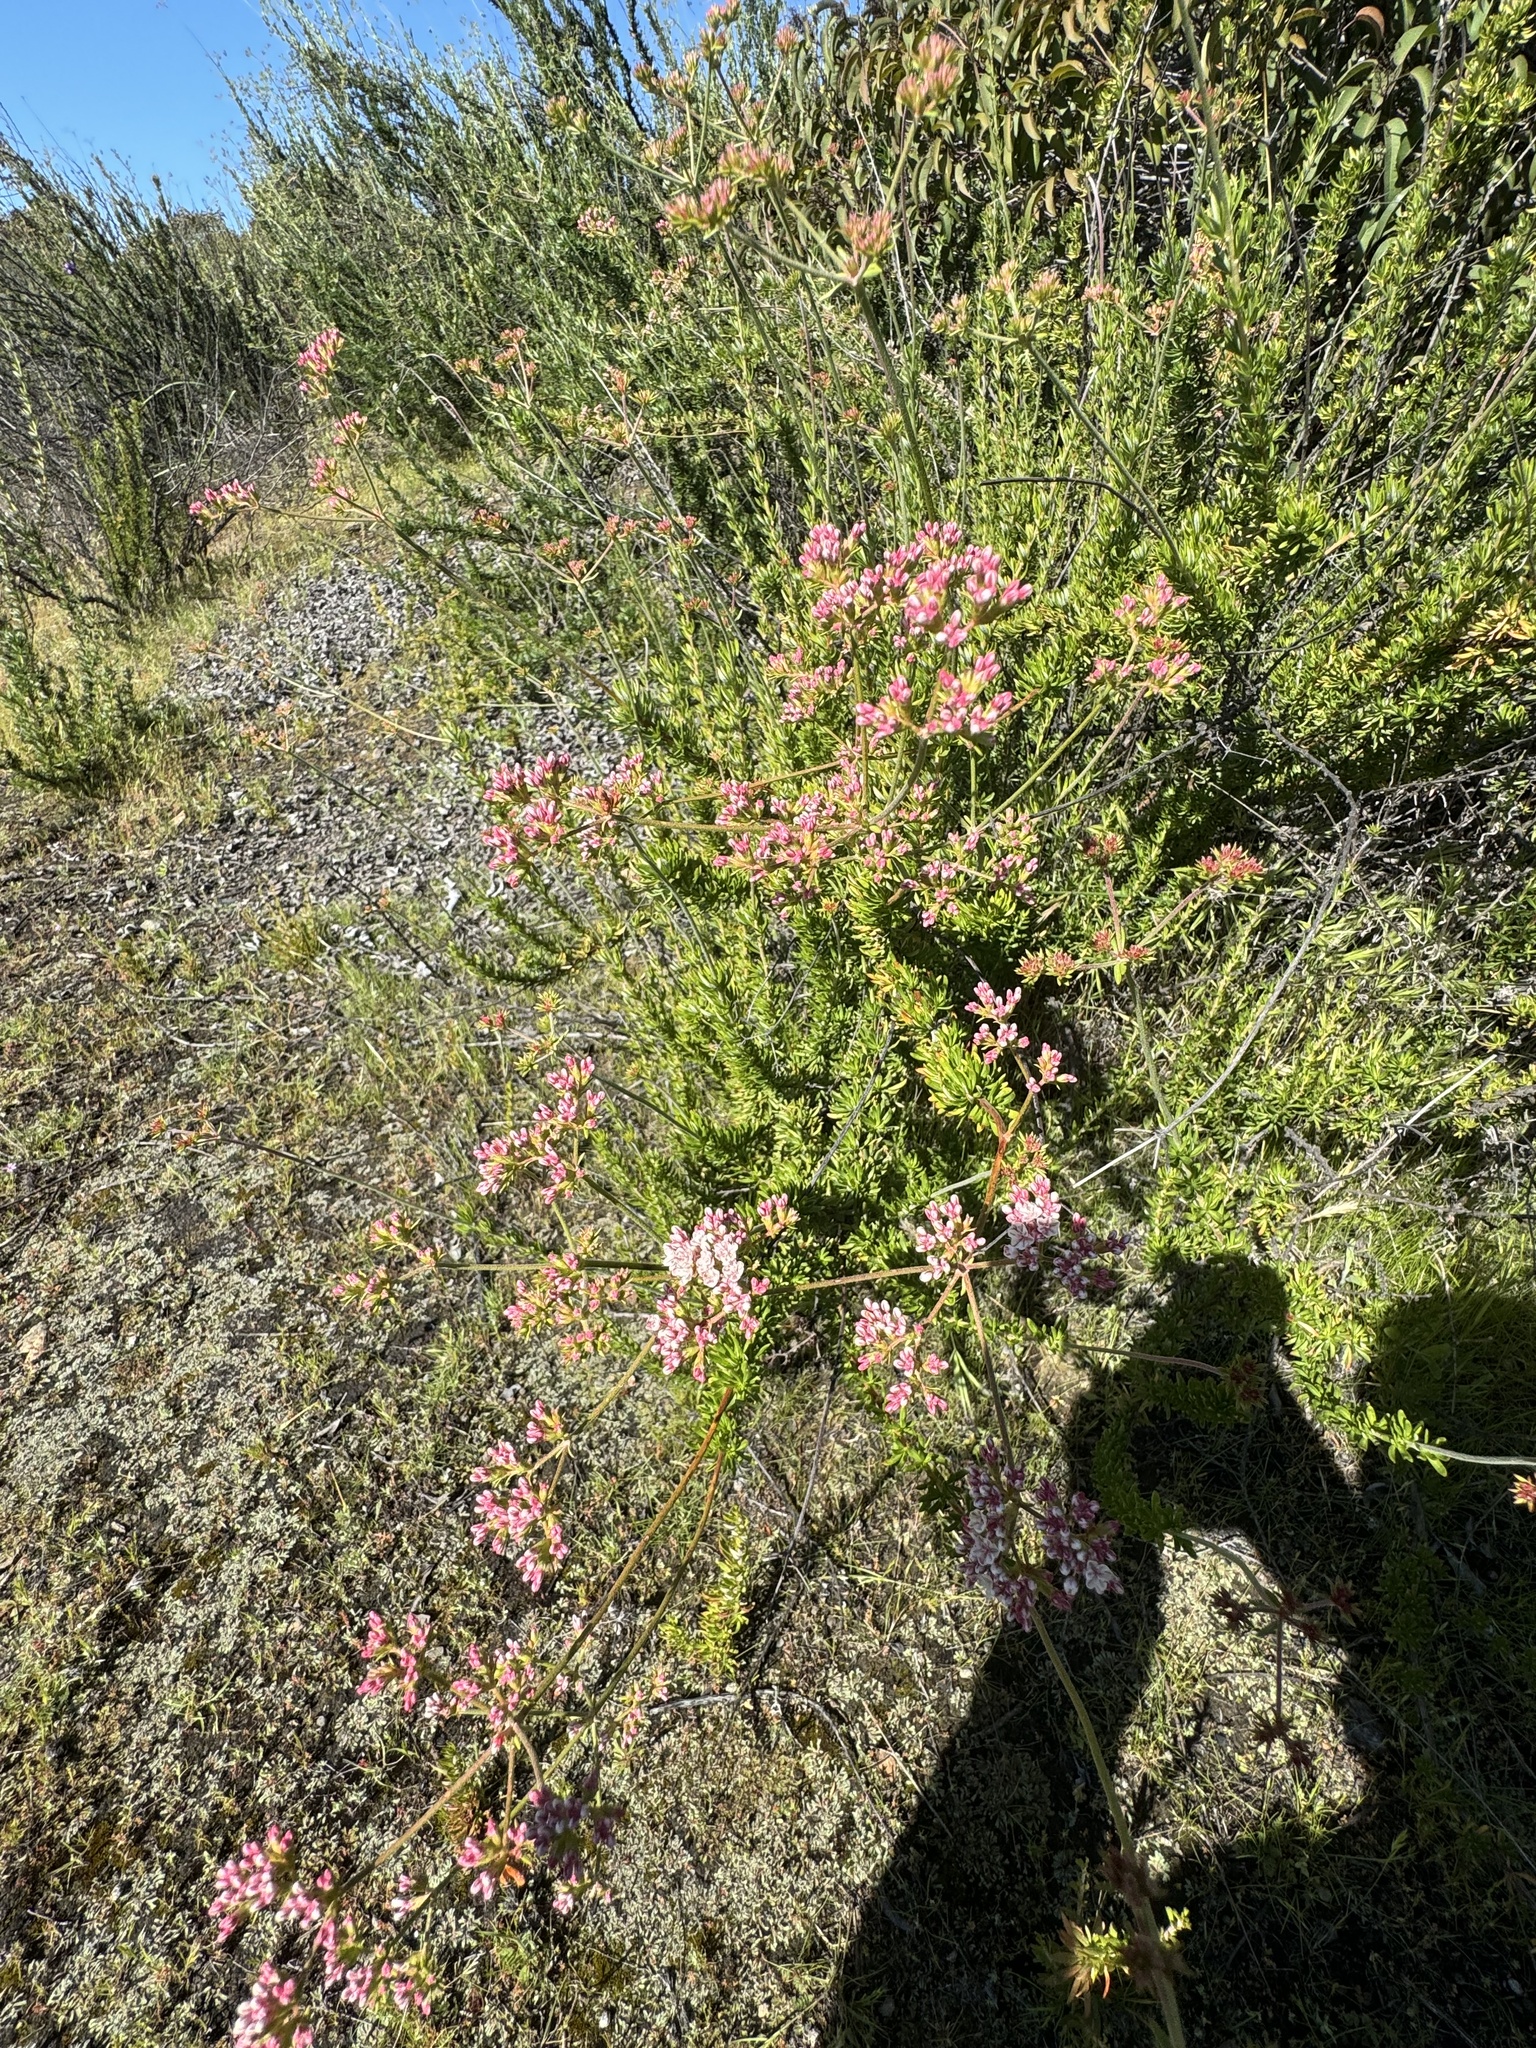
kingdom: Plantae
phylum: Tracheophyta
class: Magnoliopsida
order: Caryophyllales
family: Polygonaceae
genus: Eriogonum
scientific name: Eriogonum fasciculatum
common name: California wild buckwheat
